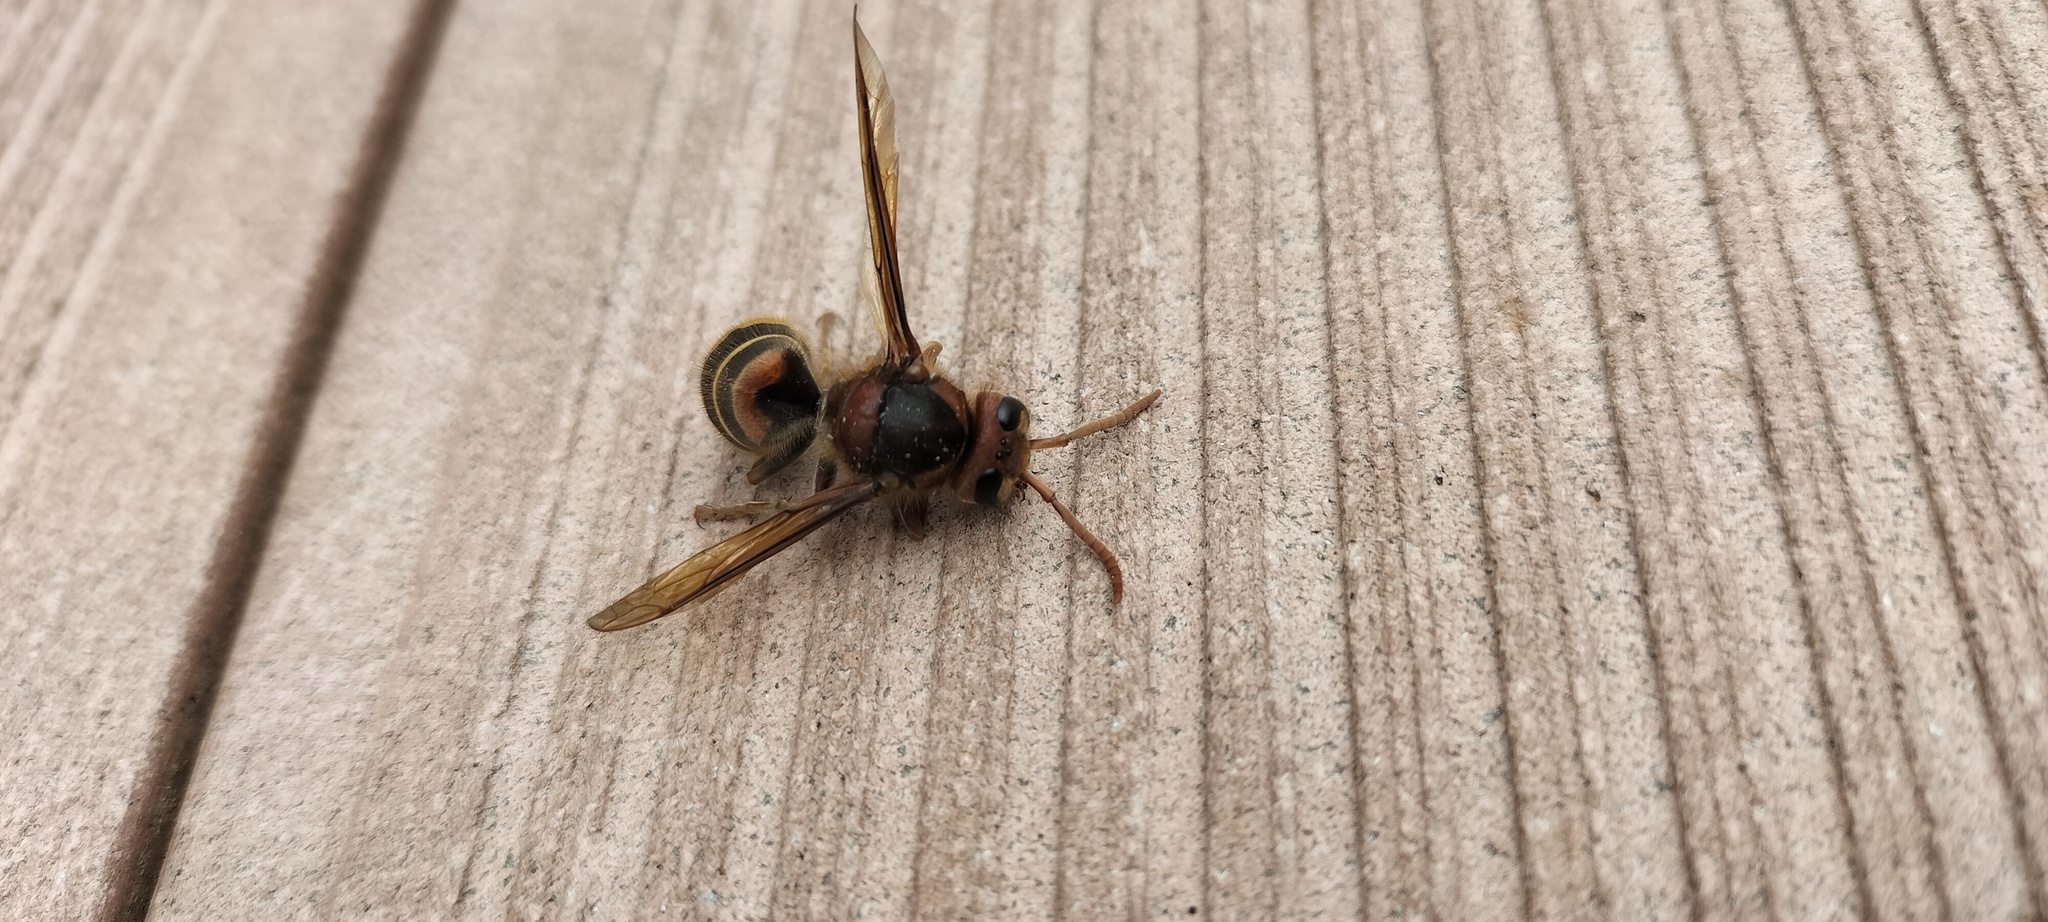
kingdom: Animalia
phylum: Arthropoda
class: Insecta
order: Hymenoptera
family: Vespidae
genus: Vespa
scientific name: Vespa crabro
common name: Hornet
